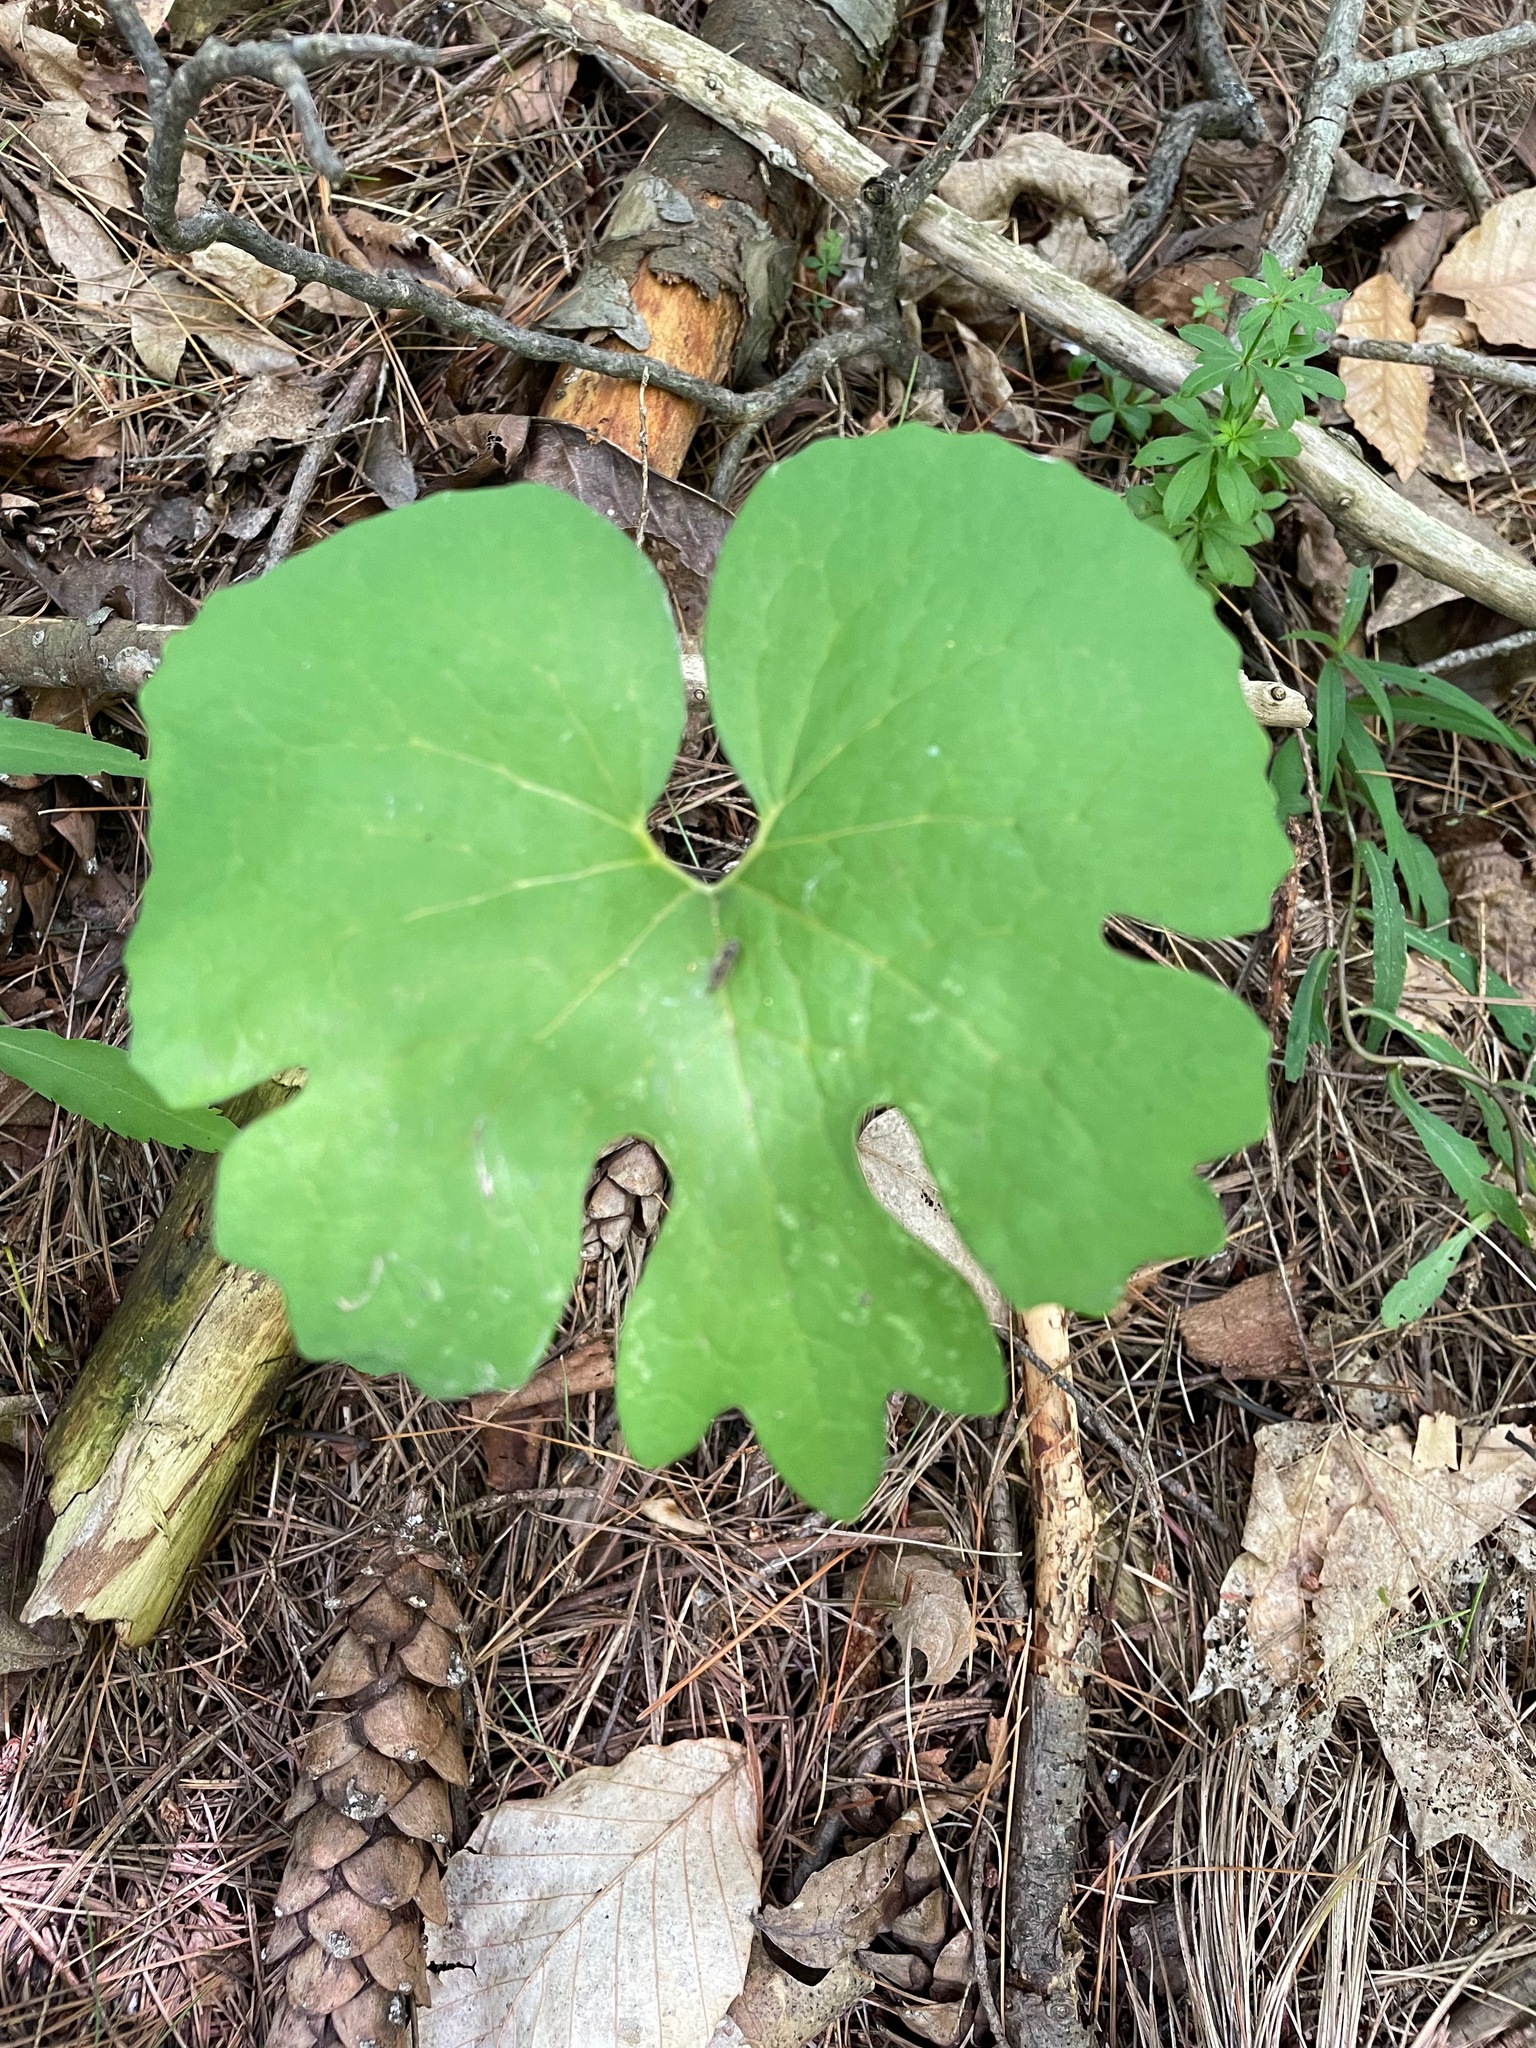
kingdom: Plantae
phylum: Tracheophyta
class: Magnoliopsida
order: Ranunculales
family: Papaveraceae
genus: Sanguinaria
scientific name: Sanguinaria canadensis
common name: Bloodroot
